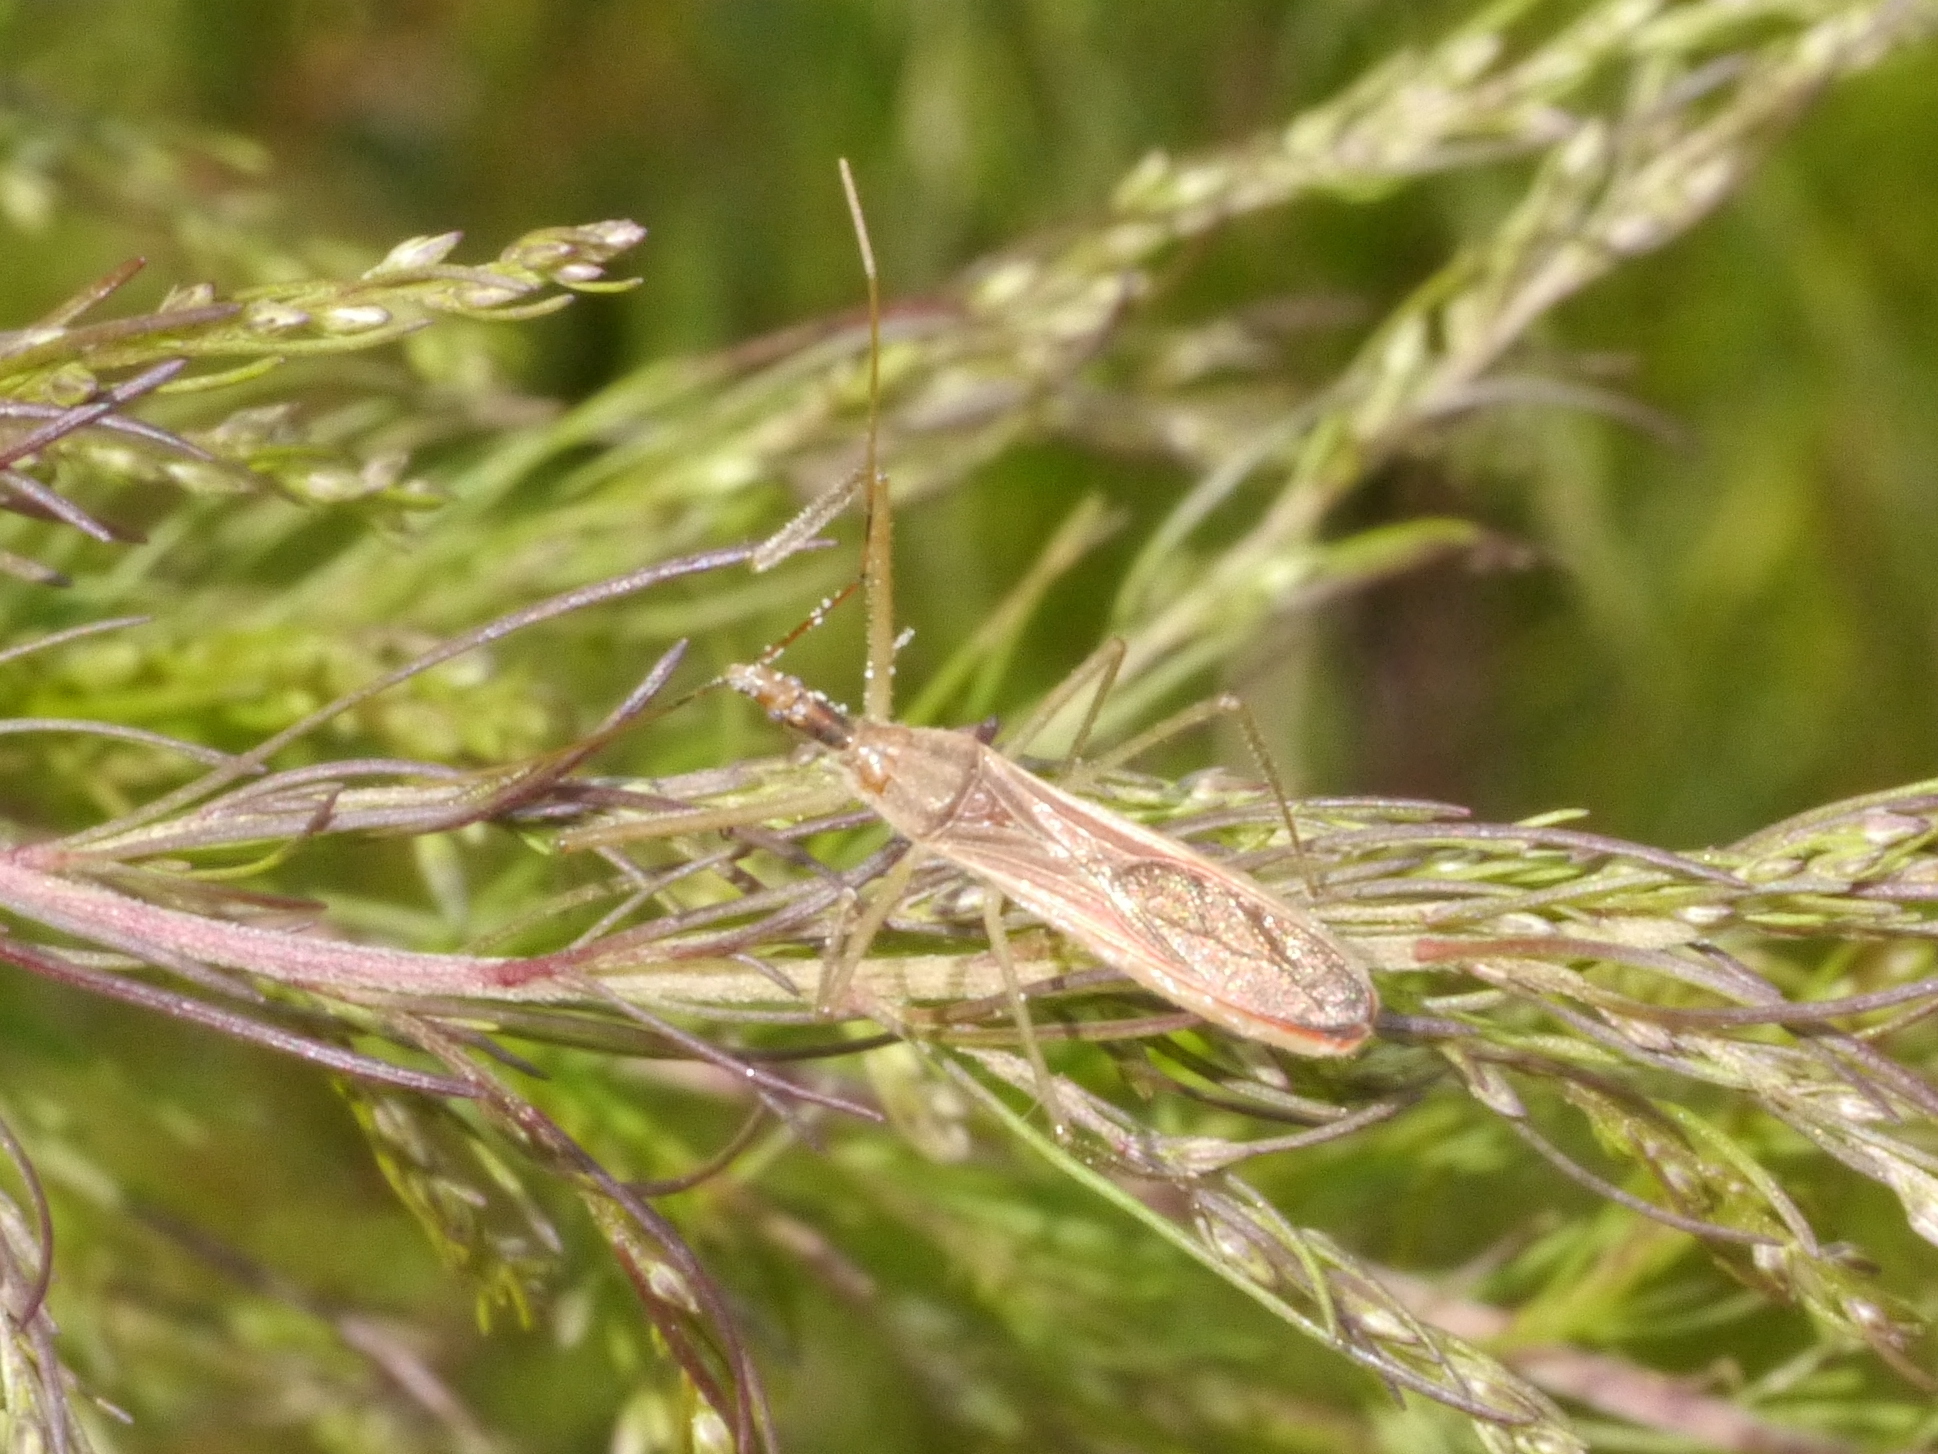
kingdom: Animalia
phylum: Arthropoda
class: Insecta
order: Hemiptera
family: Reduviidae
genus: Zelus
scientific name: Zelus cervicalis
